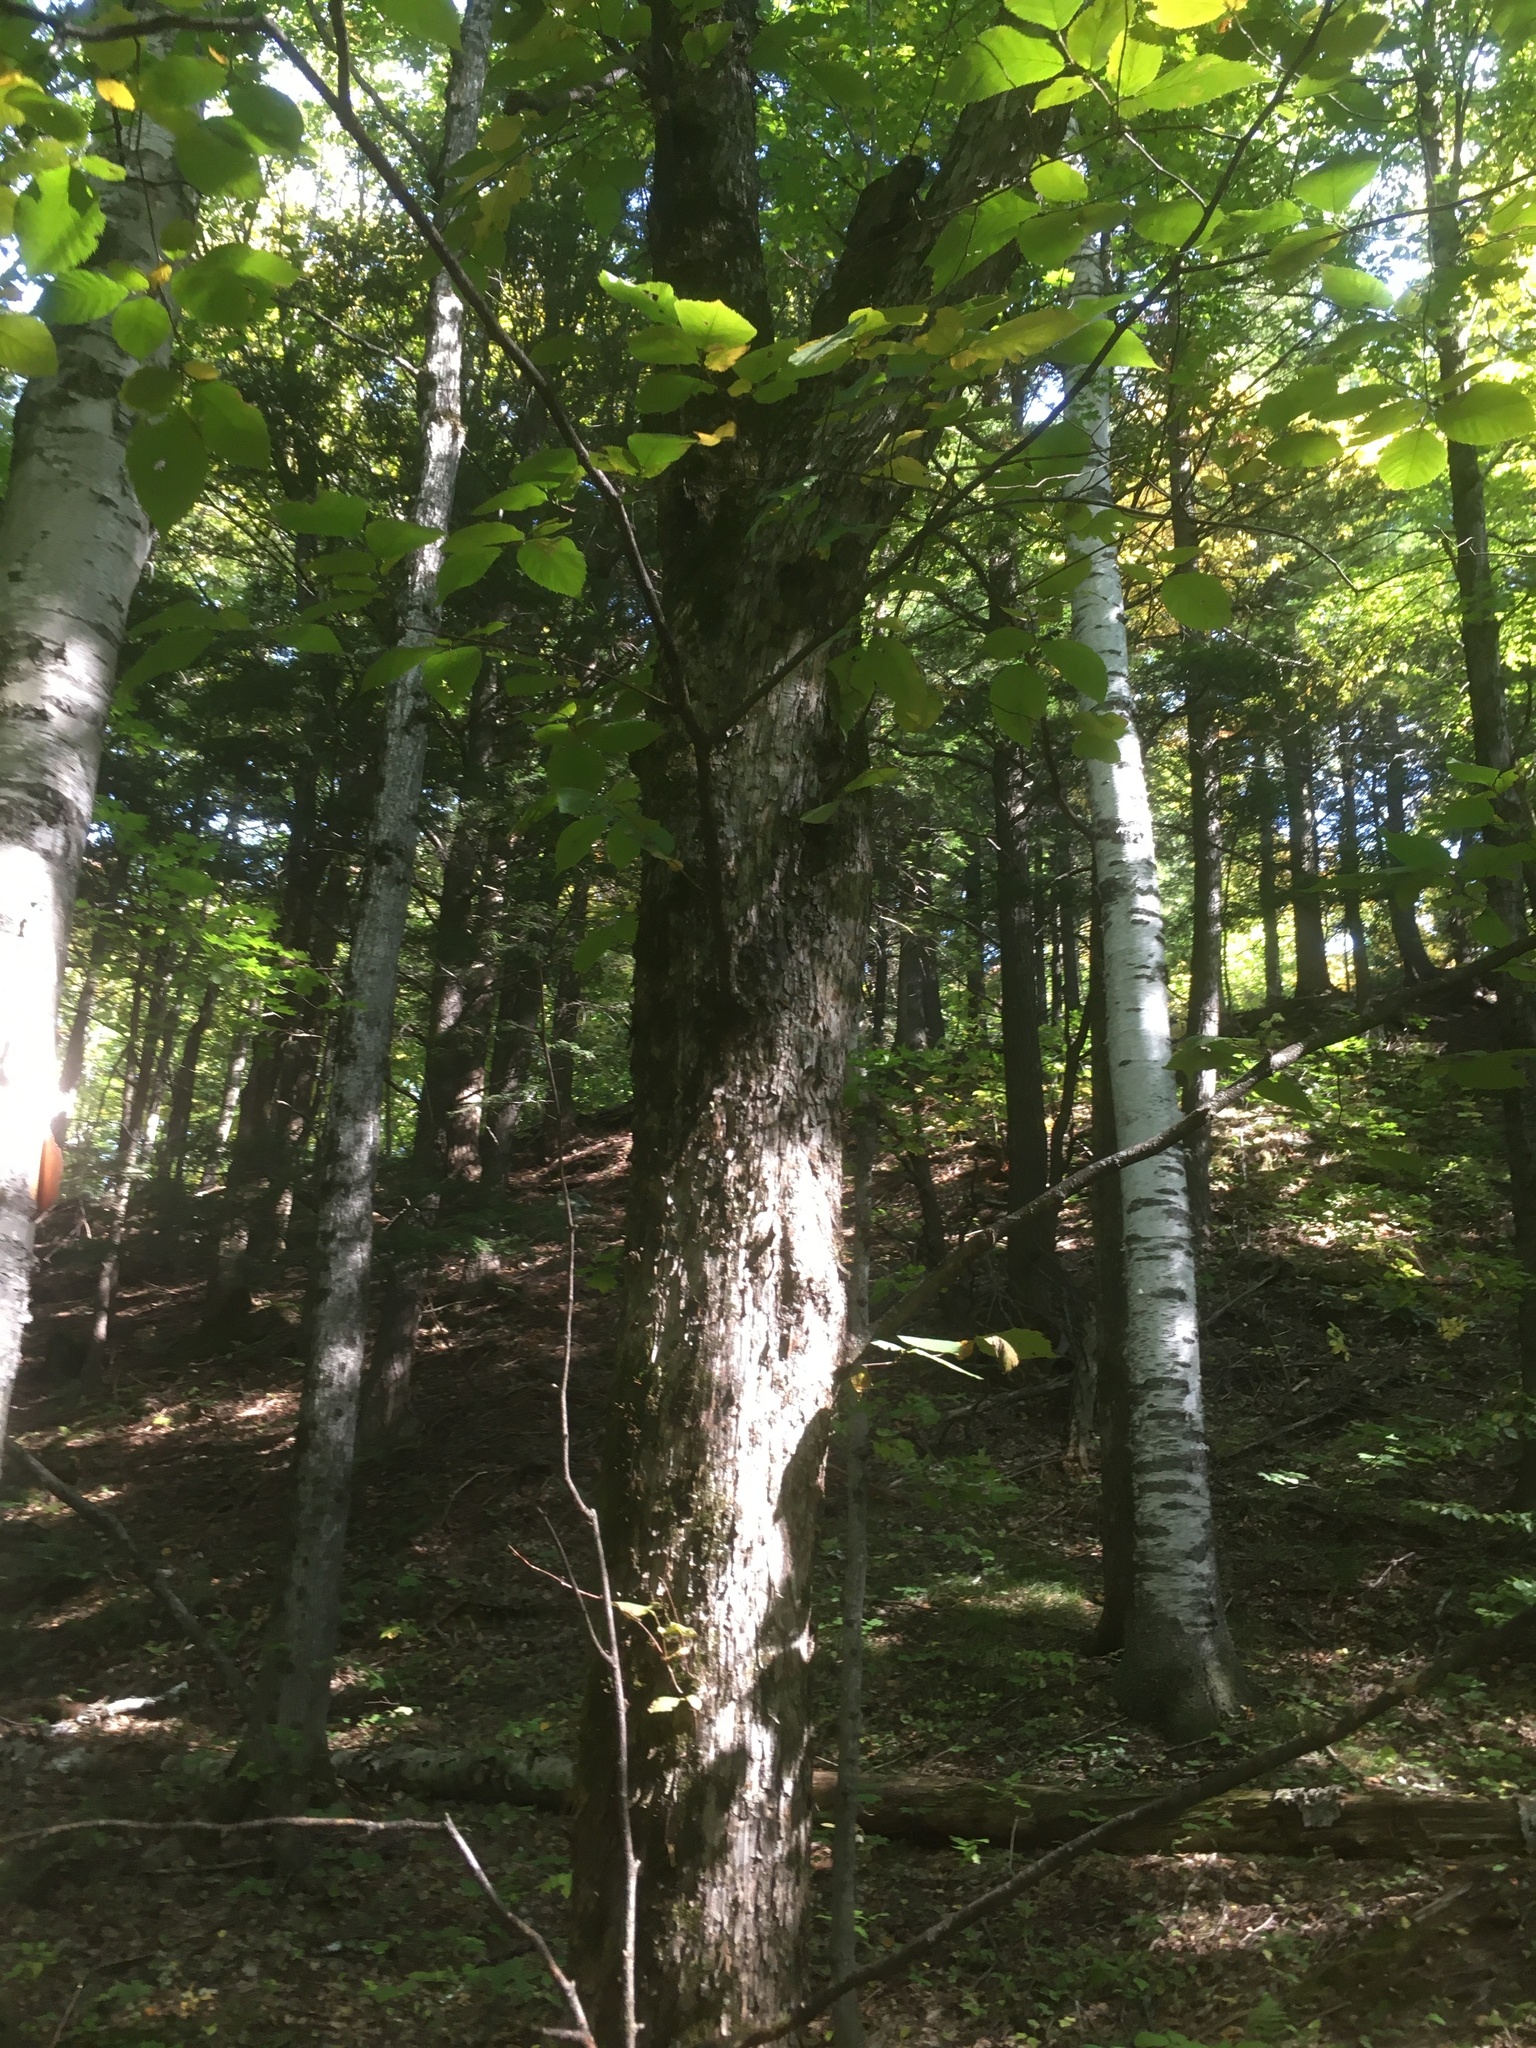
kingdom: Plantae
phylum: Tracheophyta
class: Magnoliopsida
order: Fagales
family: Betulaceae
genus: Ostrya
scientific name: Ostrya virginiana
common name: Ironwood
